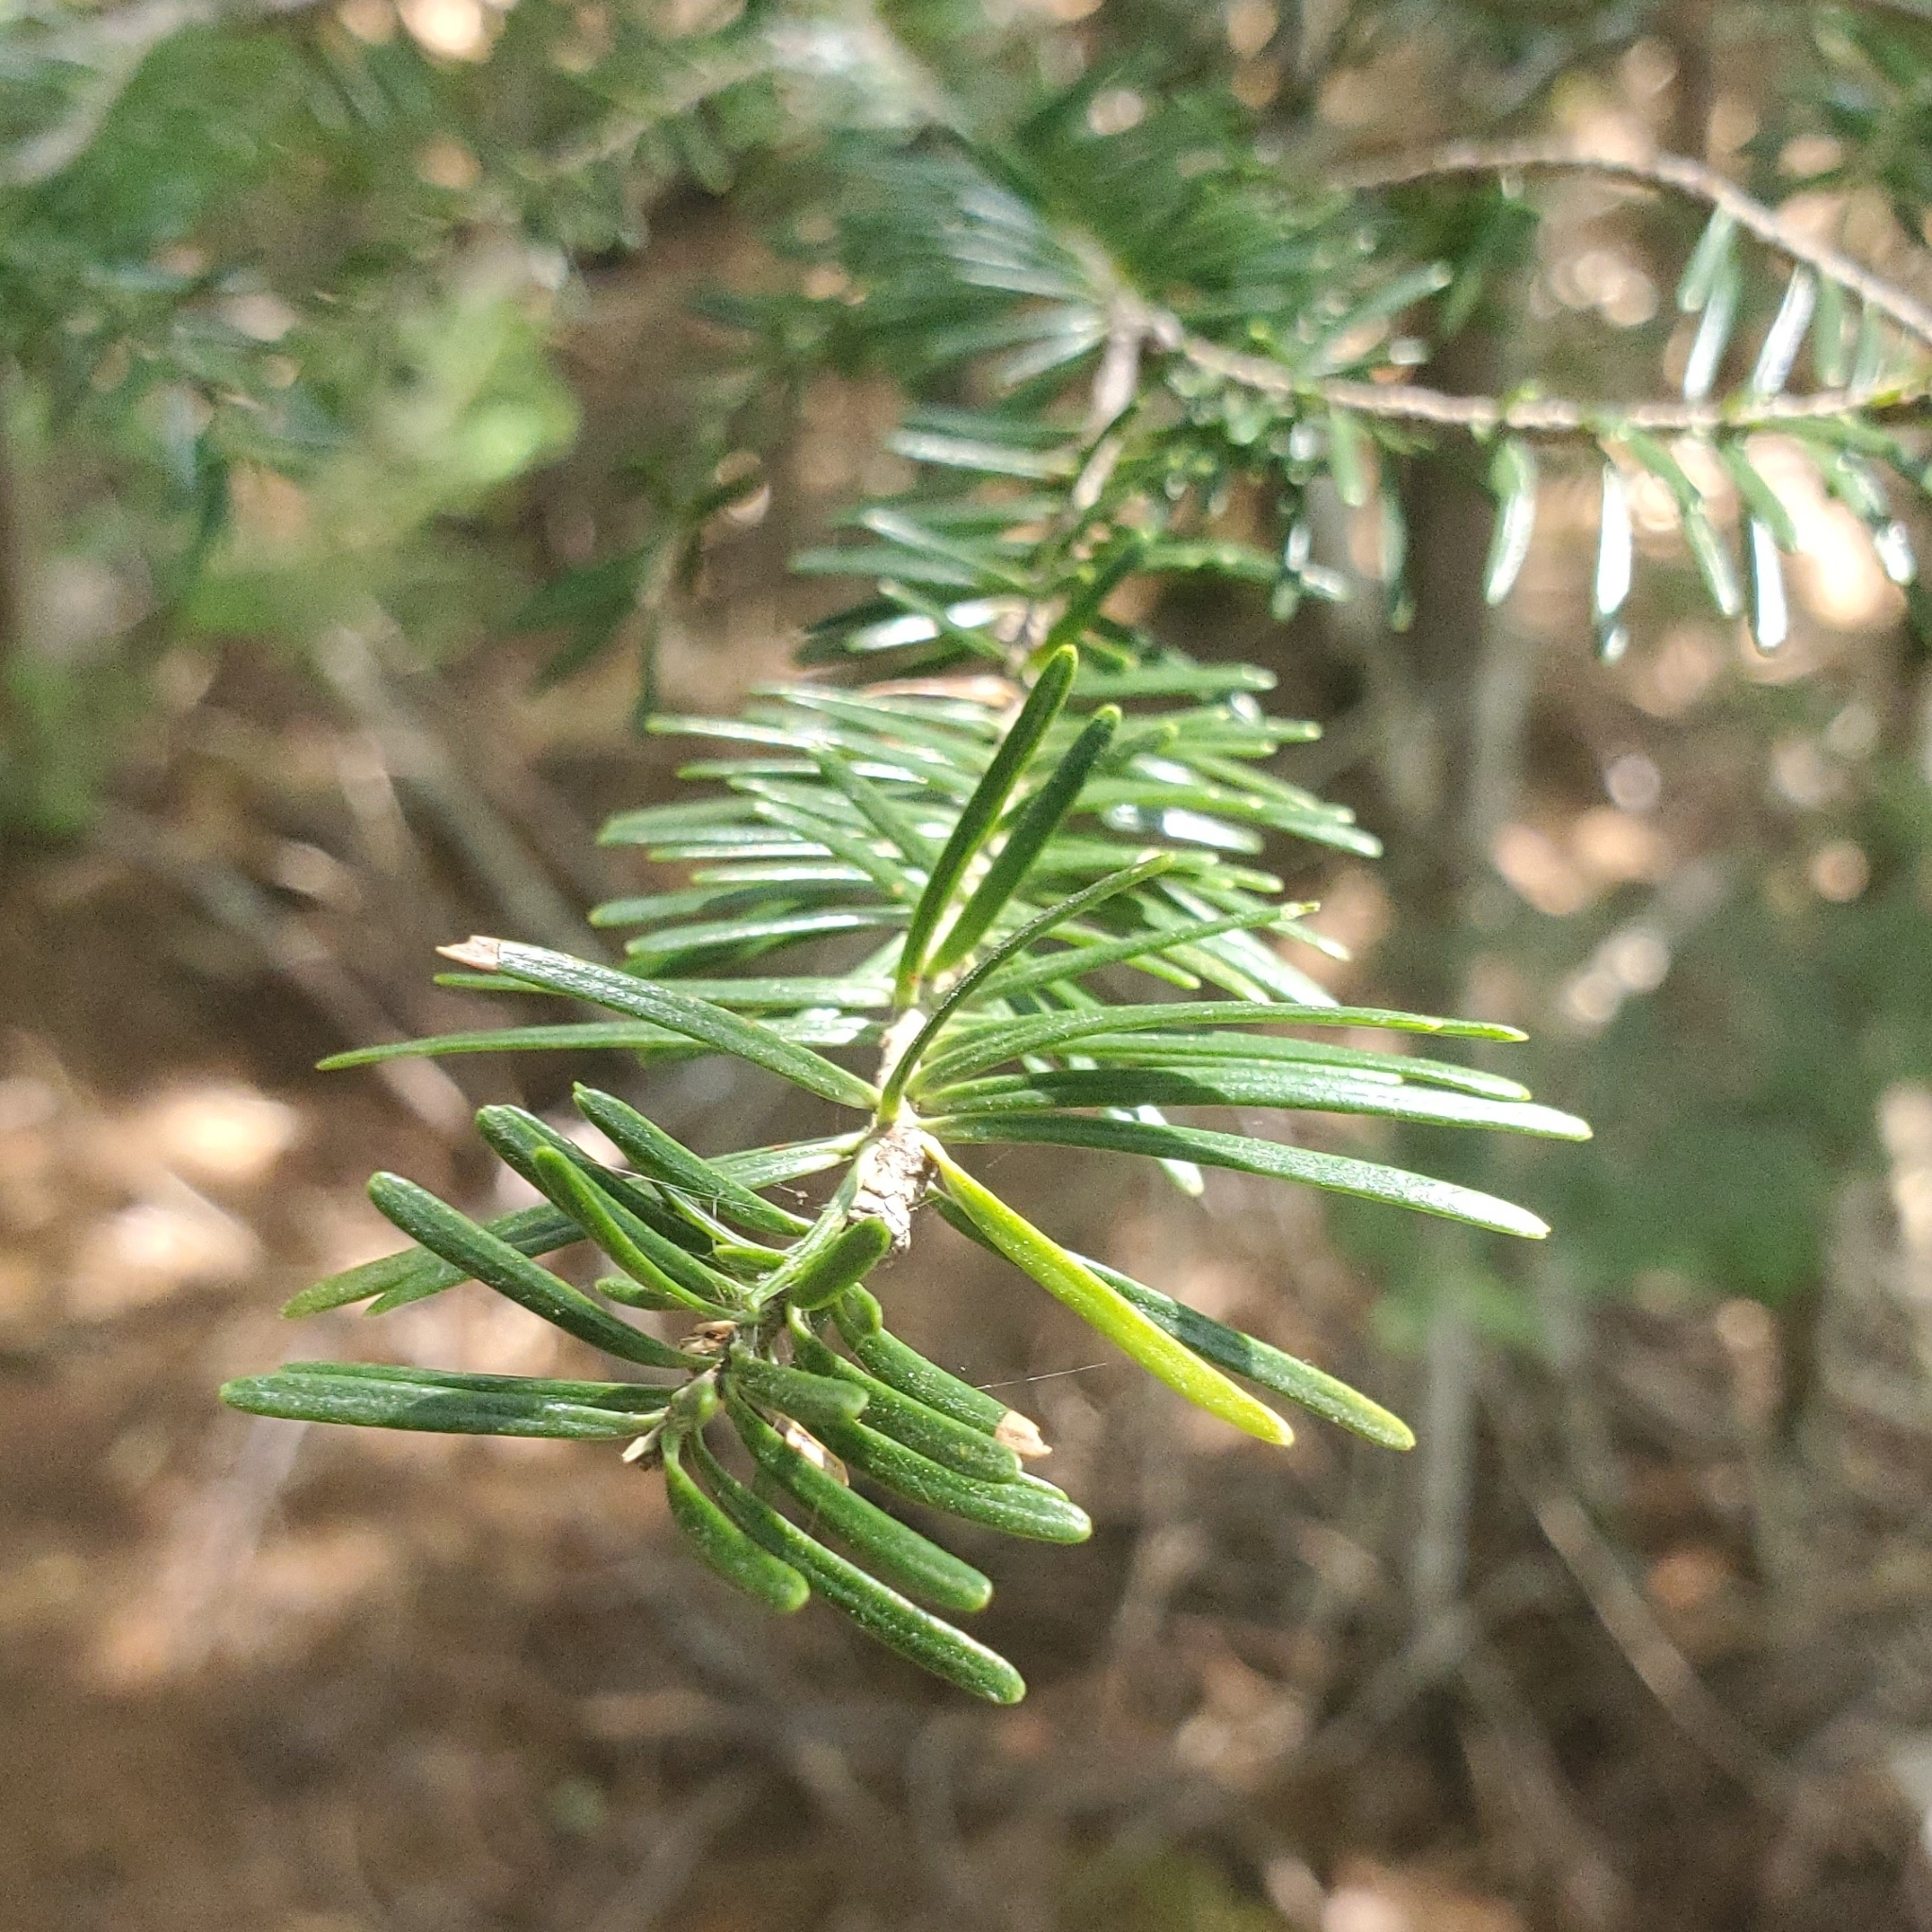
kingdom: Plantae
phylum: Tracheophyta
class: Pinopsida
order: Pinales
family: Pinaceae
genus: Abies
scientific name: Abies balsamea
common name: Balsam fir
